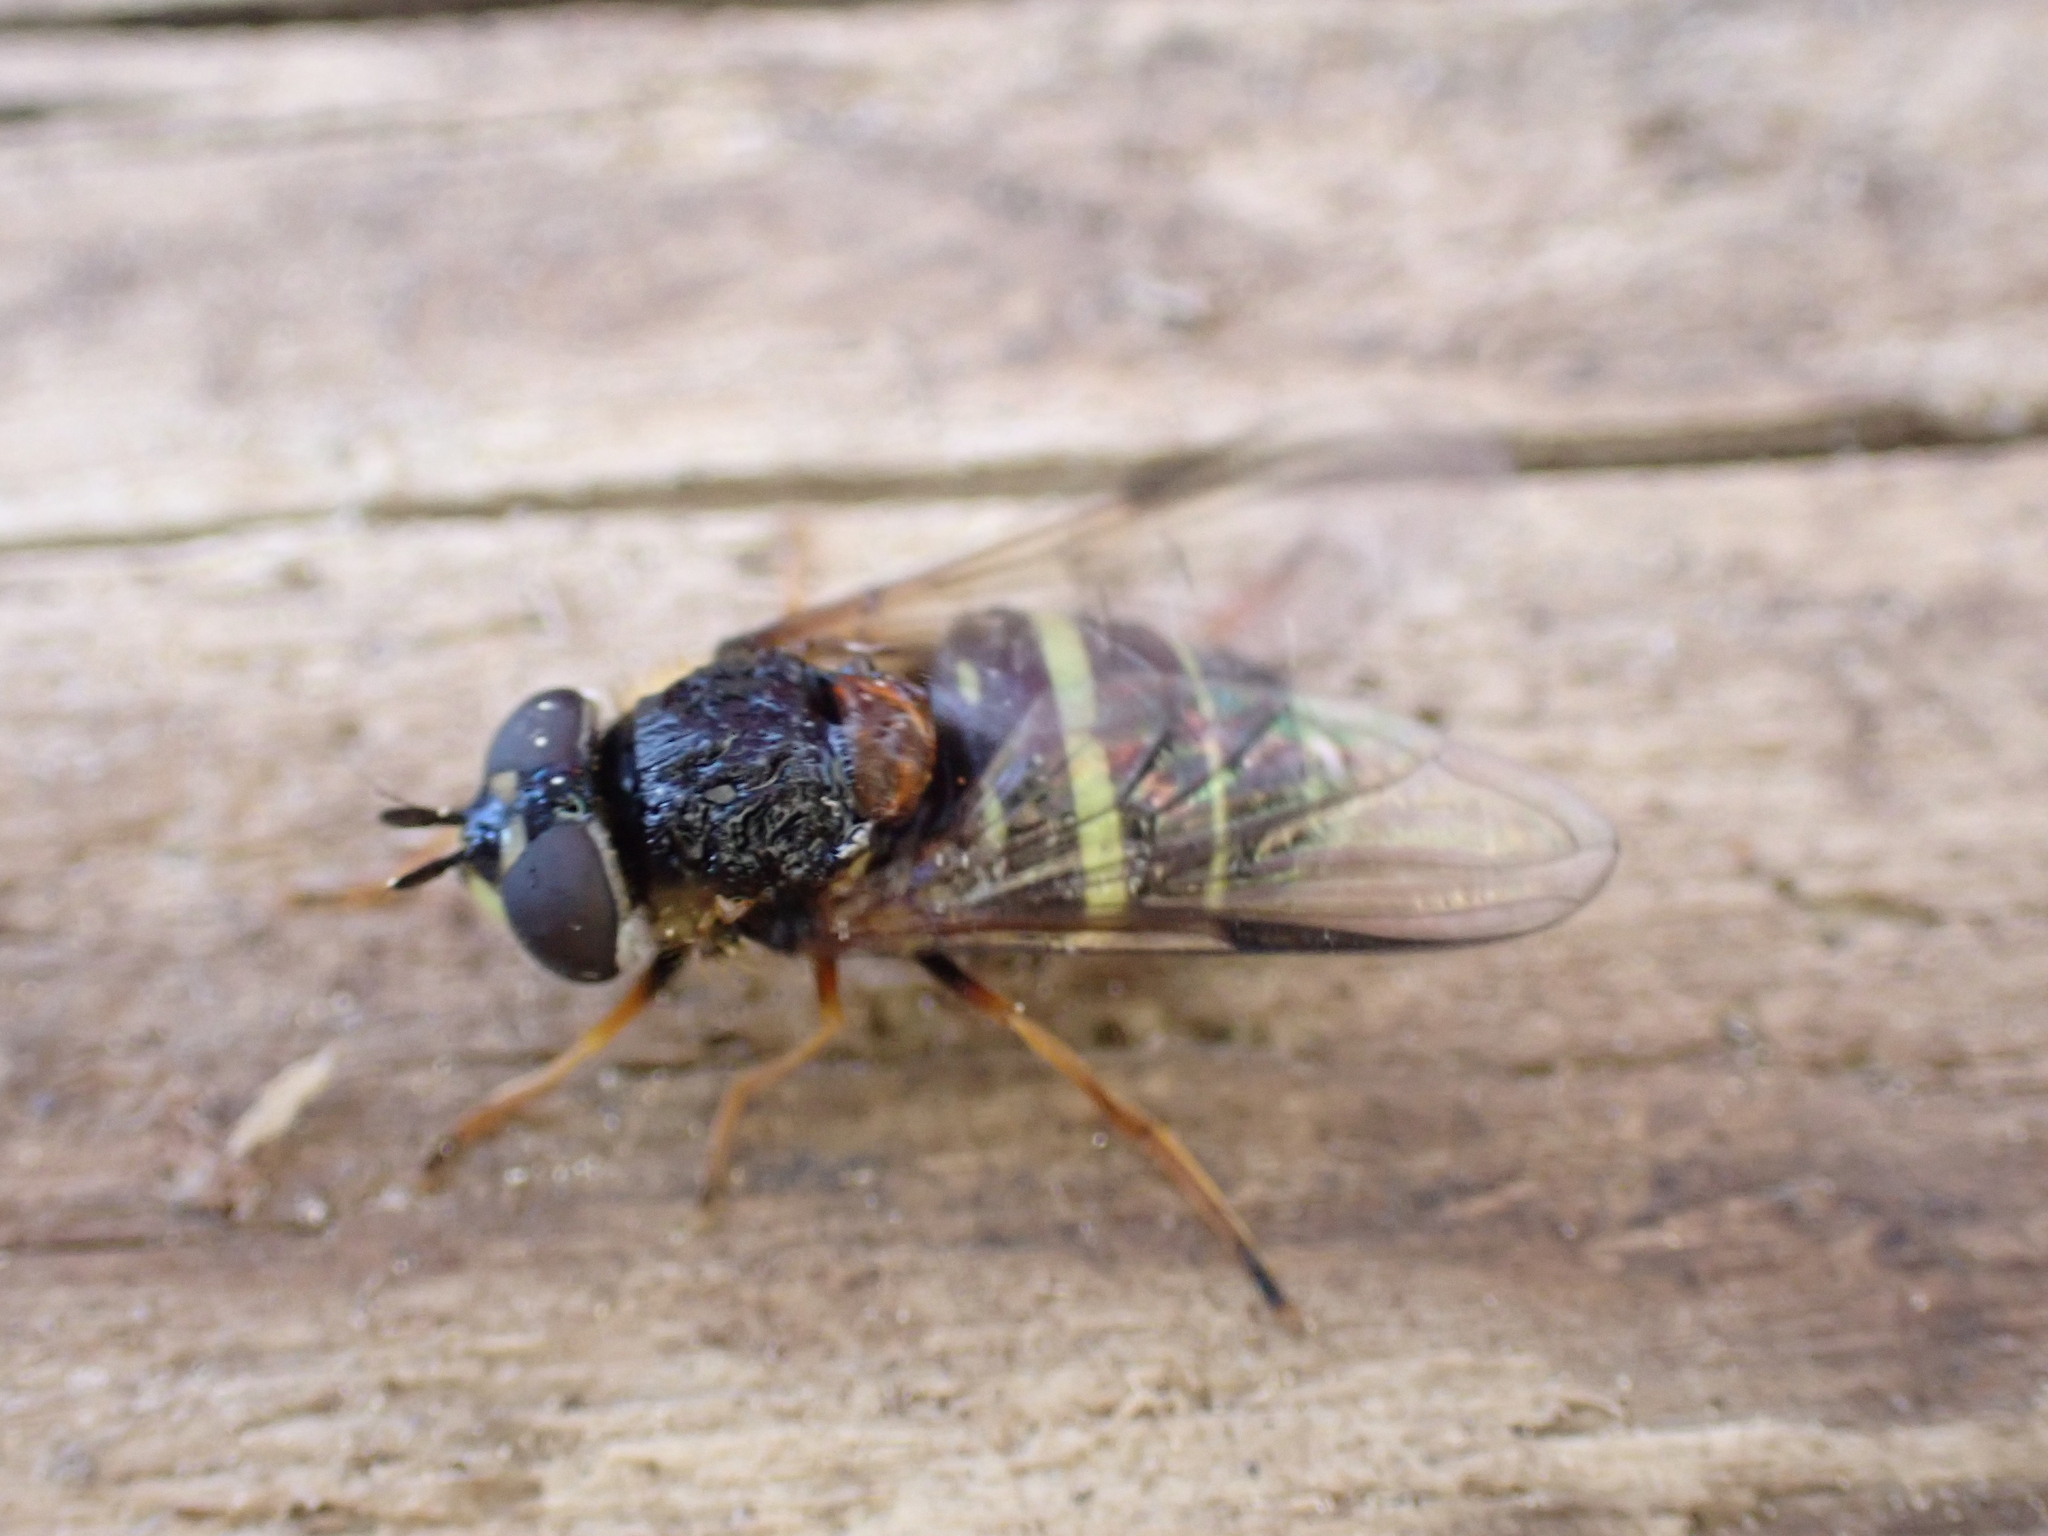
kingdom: Animalia
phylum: Arthropoda
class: Insecta
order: Diptera
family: Syrphidae
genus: Dasysyrphus
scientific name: Dasysyrphus tricinctus
